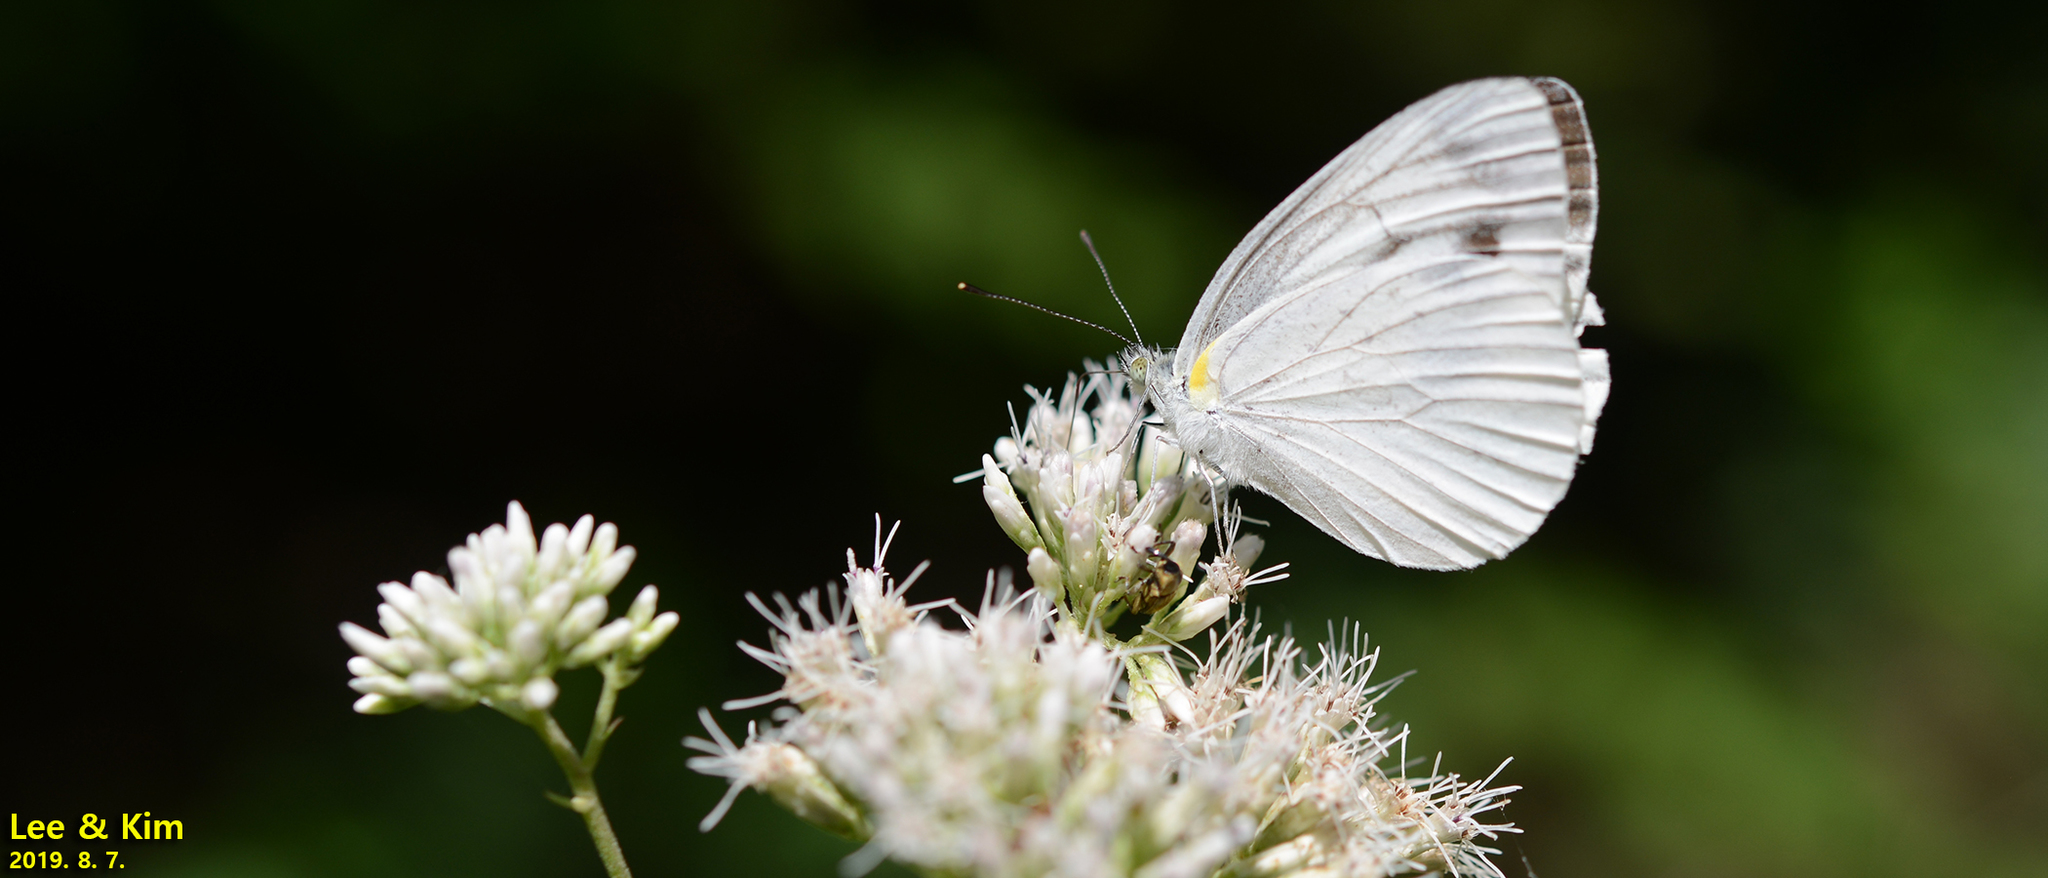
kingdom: Animalia
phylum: Arthropoda
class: Insecta
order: Lepidoptera
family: Pieridae
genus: Pieris
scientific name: Pieris melete
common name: Asian green-veined white
